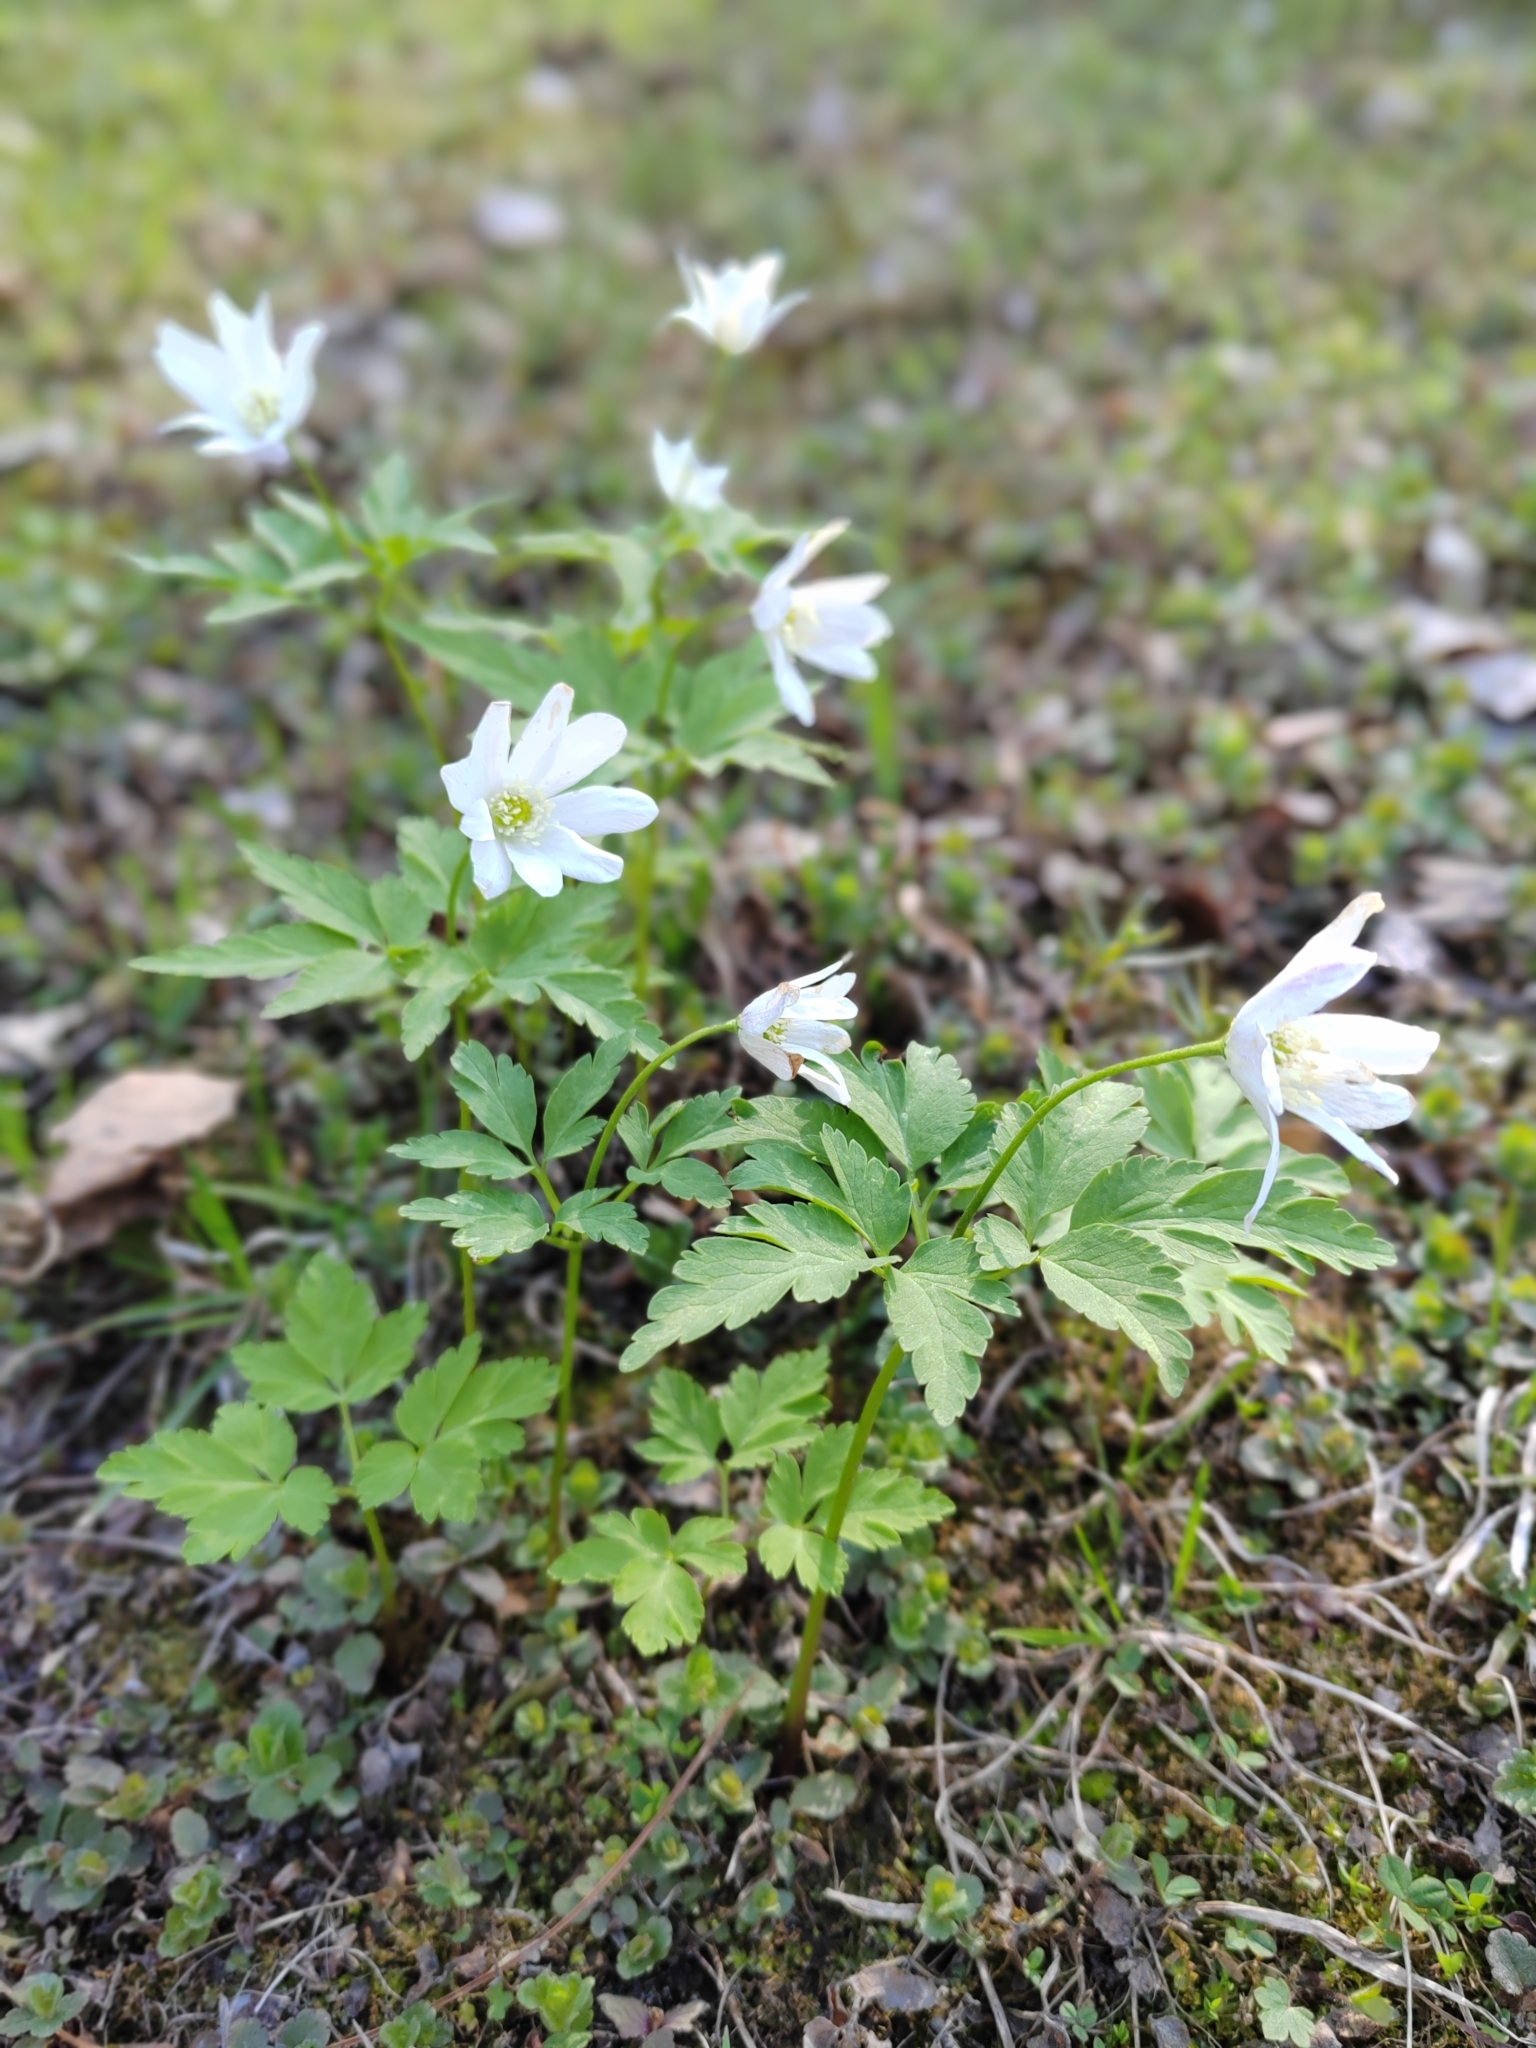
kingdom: Plantae
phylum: Tracheophyta
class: Magnoliopsida
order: Ranunculales
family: Ranunculaceae
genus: Anemone
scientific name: Anemone altaica
